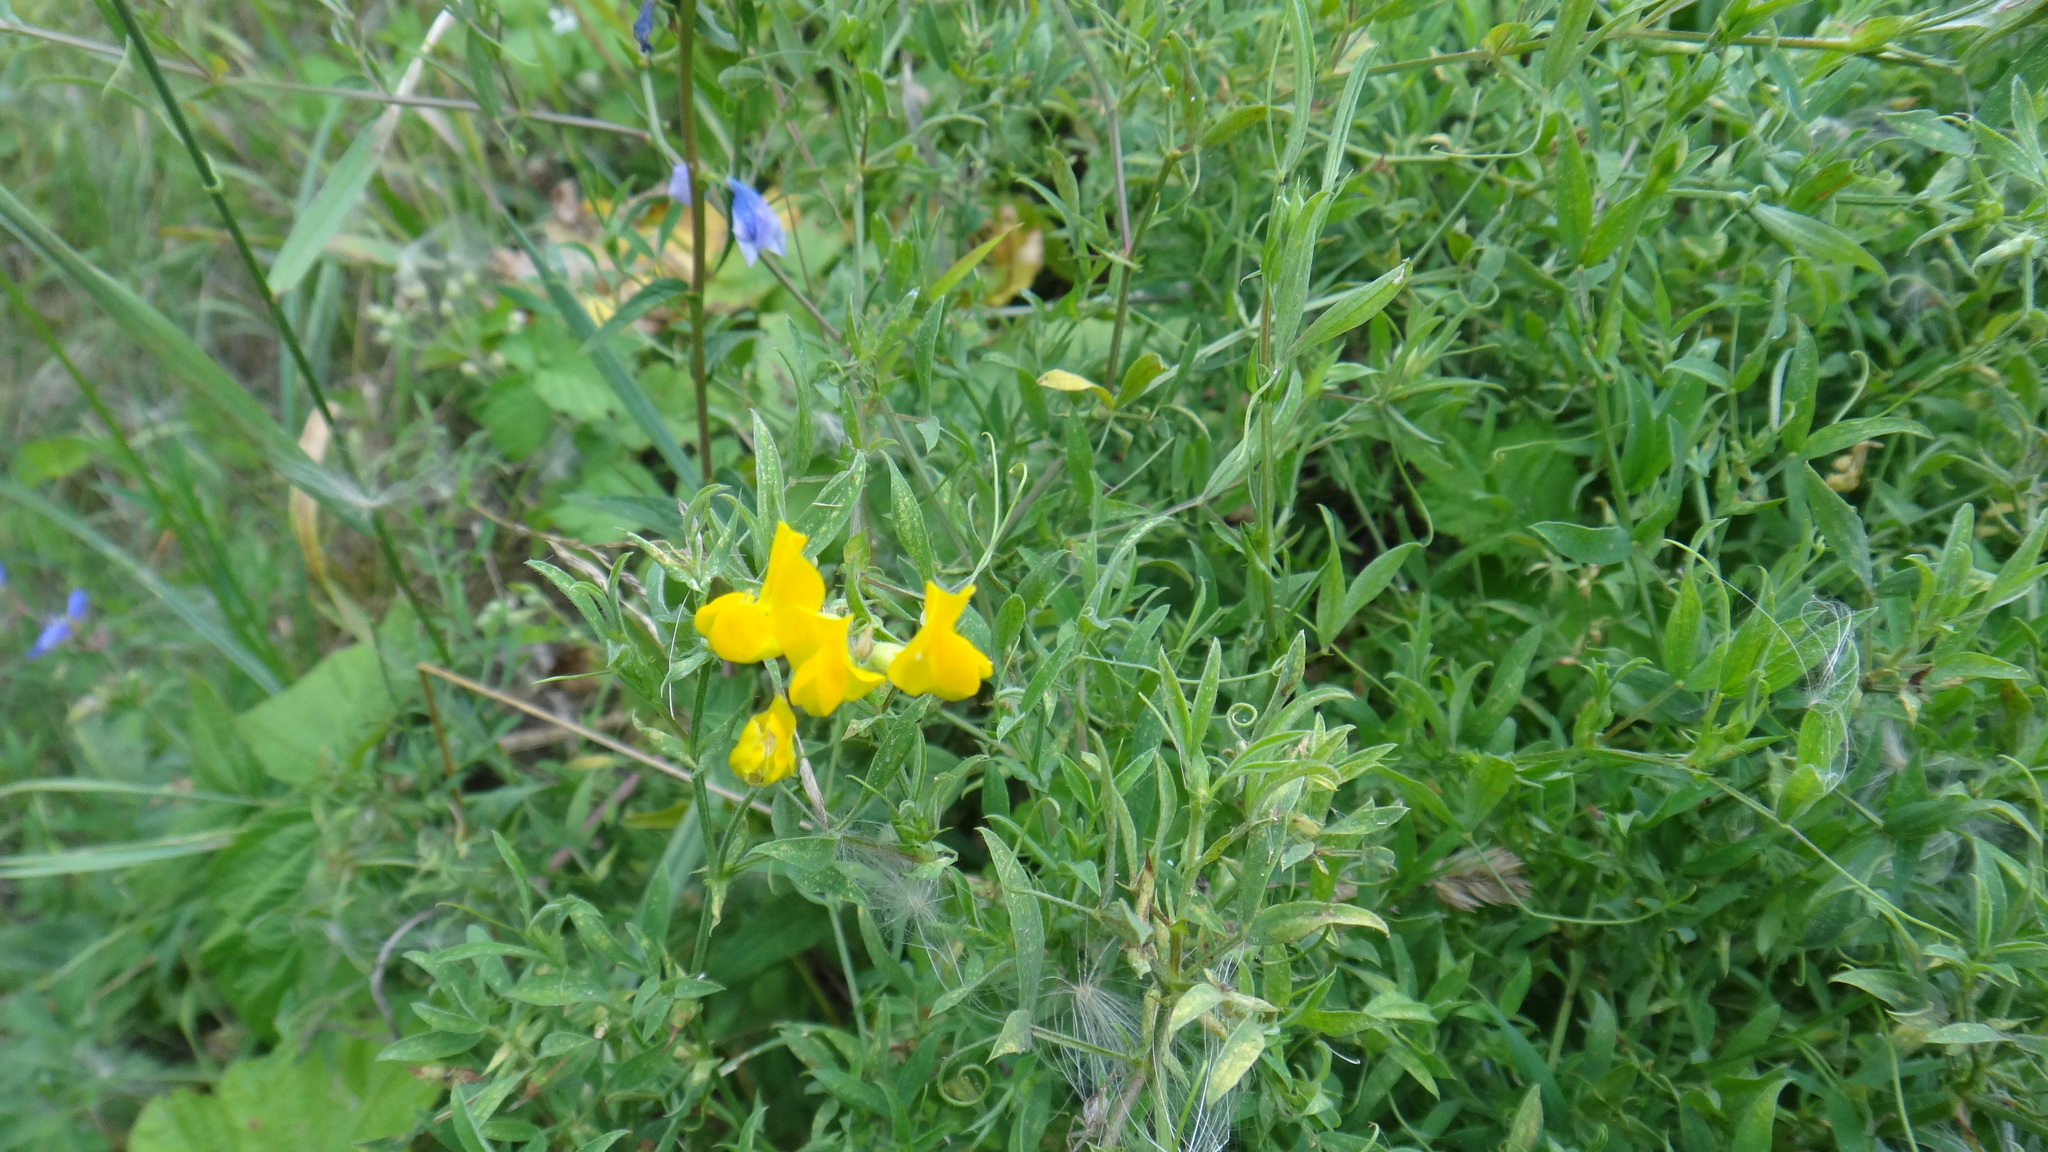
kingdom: Plantae
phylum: Tracheophyta
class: Magnoliopsida
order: Fabales
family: Fabaceae
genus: Lathyrus
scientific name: Lathyrus pratensis
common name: Meadow vetchling
